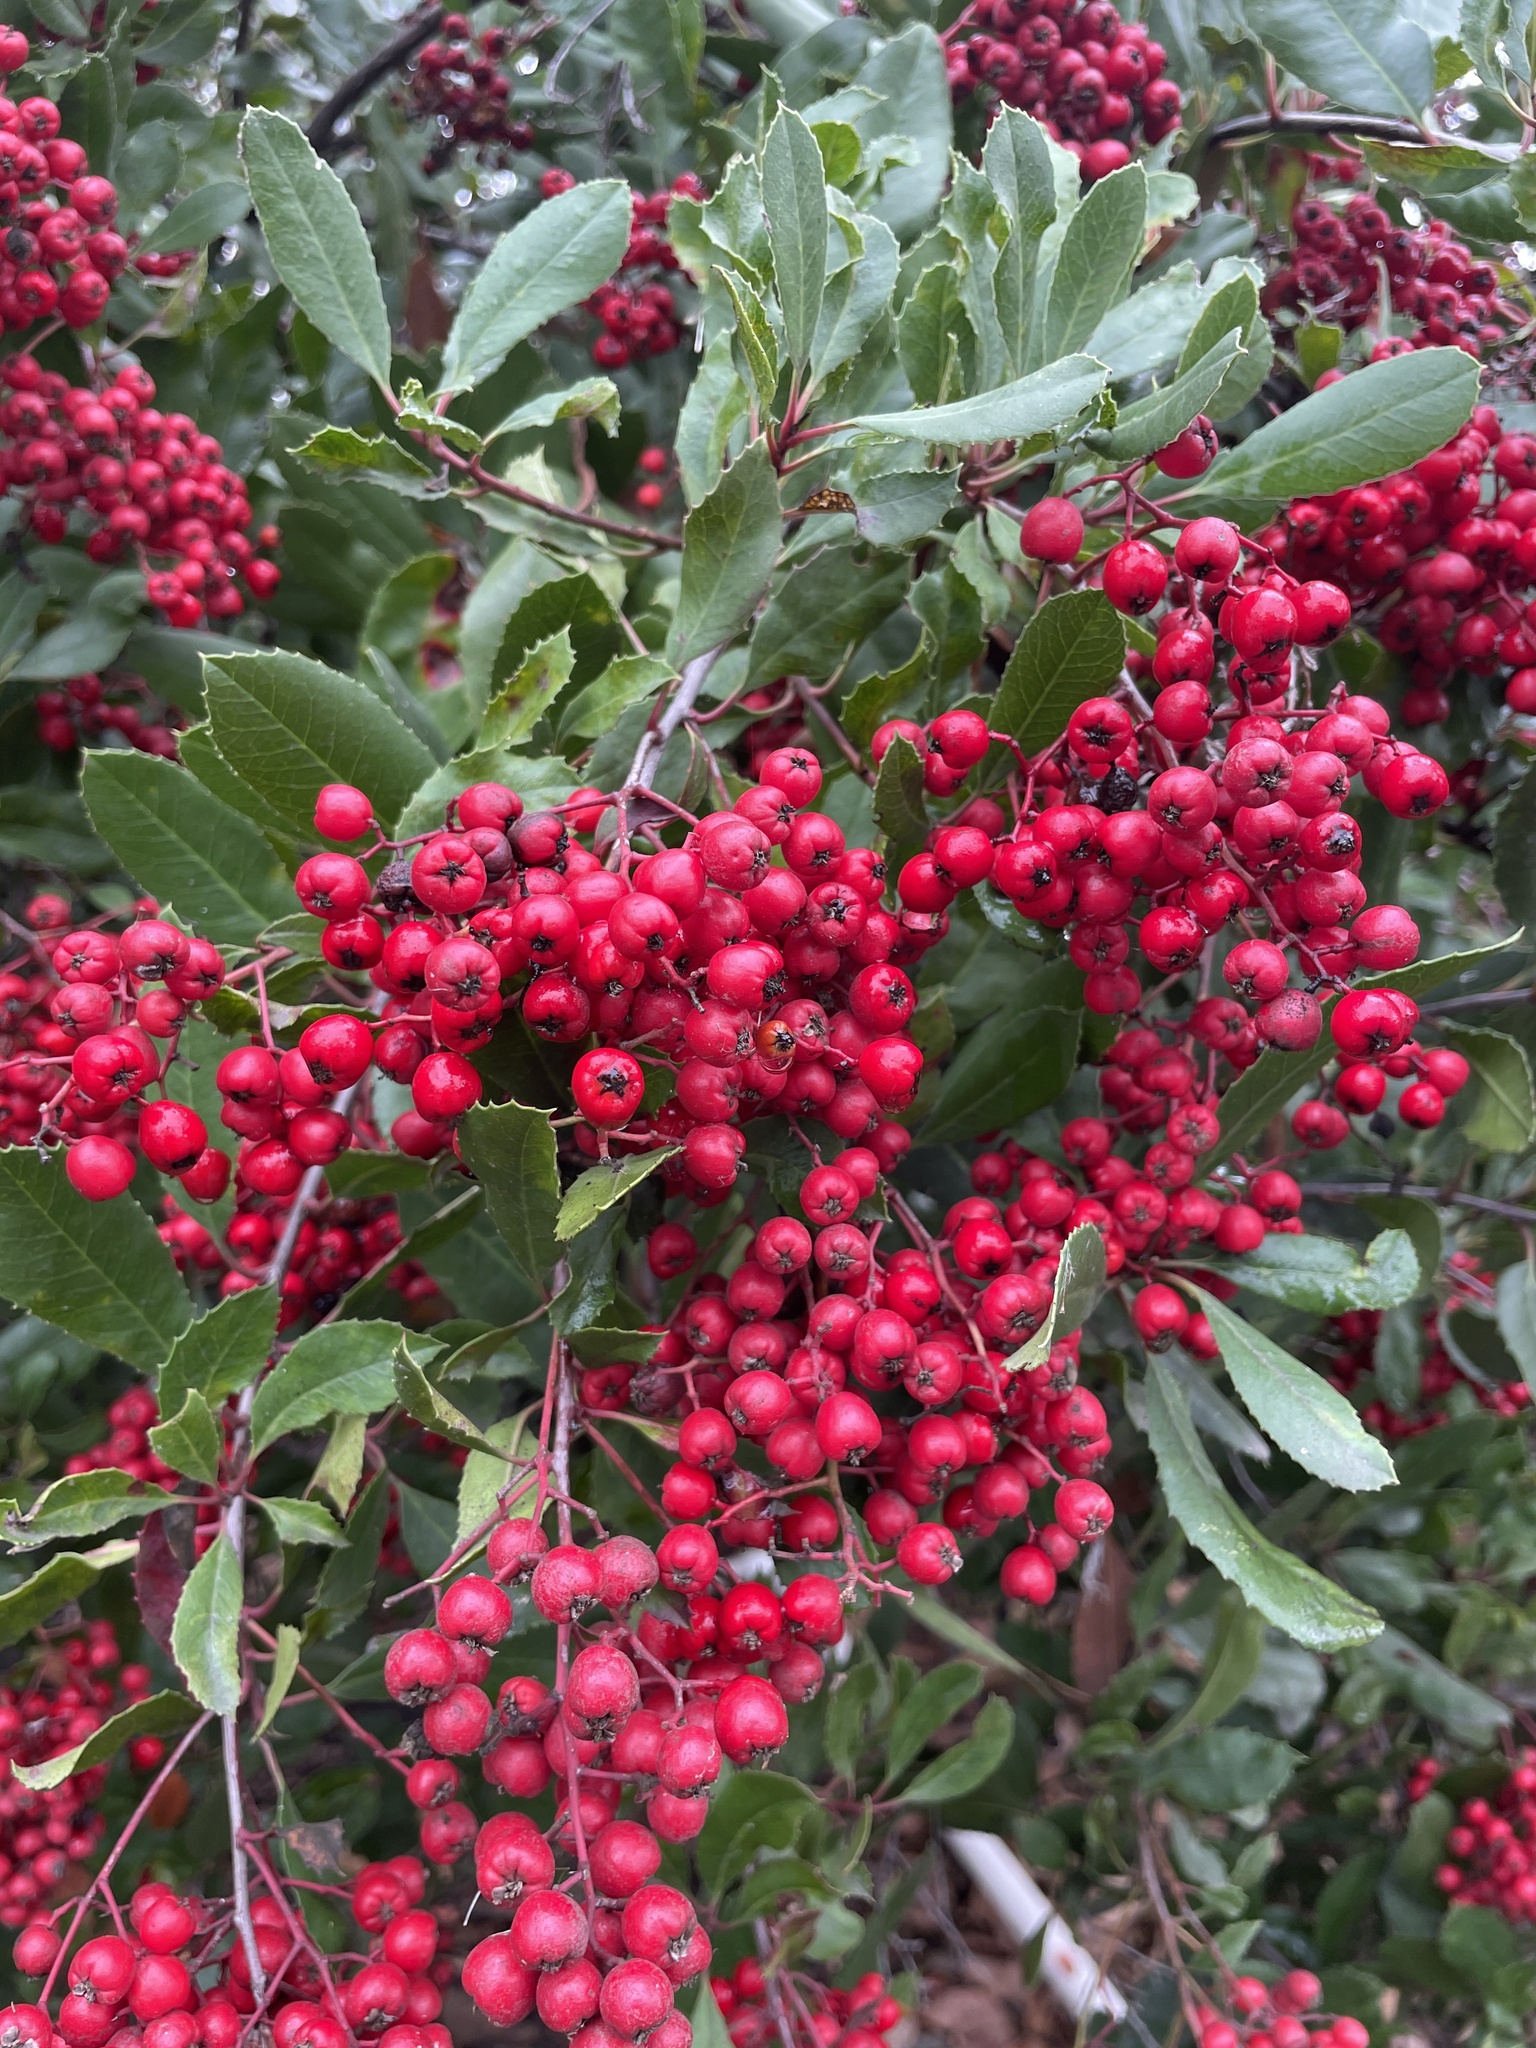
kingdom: Plantae
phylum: Tracheophyta
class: Magnoliopsida
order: Rosales
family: Rosaceae
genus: Heteromeles
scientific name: Heteromeles arbutifolia
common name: California-holly
